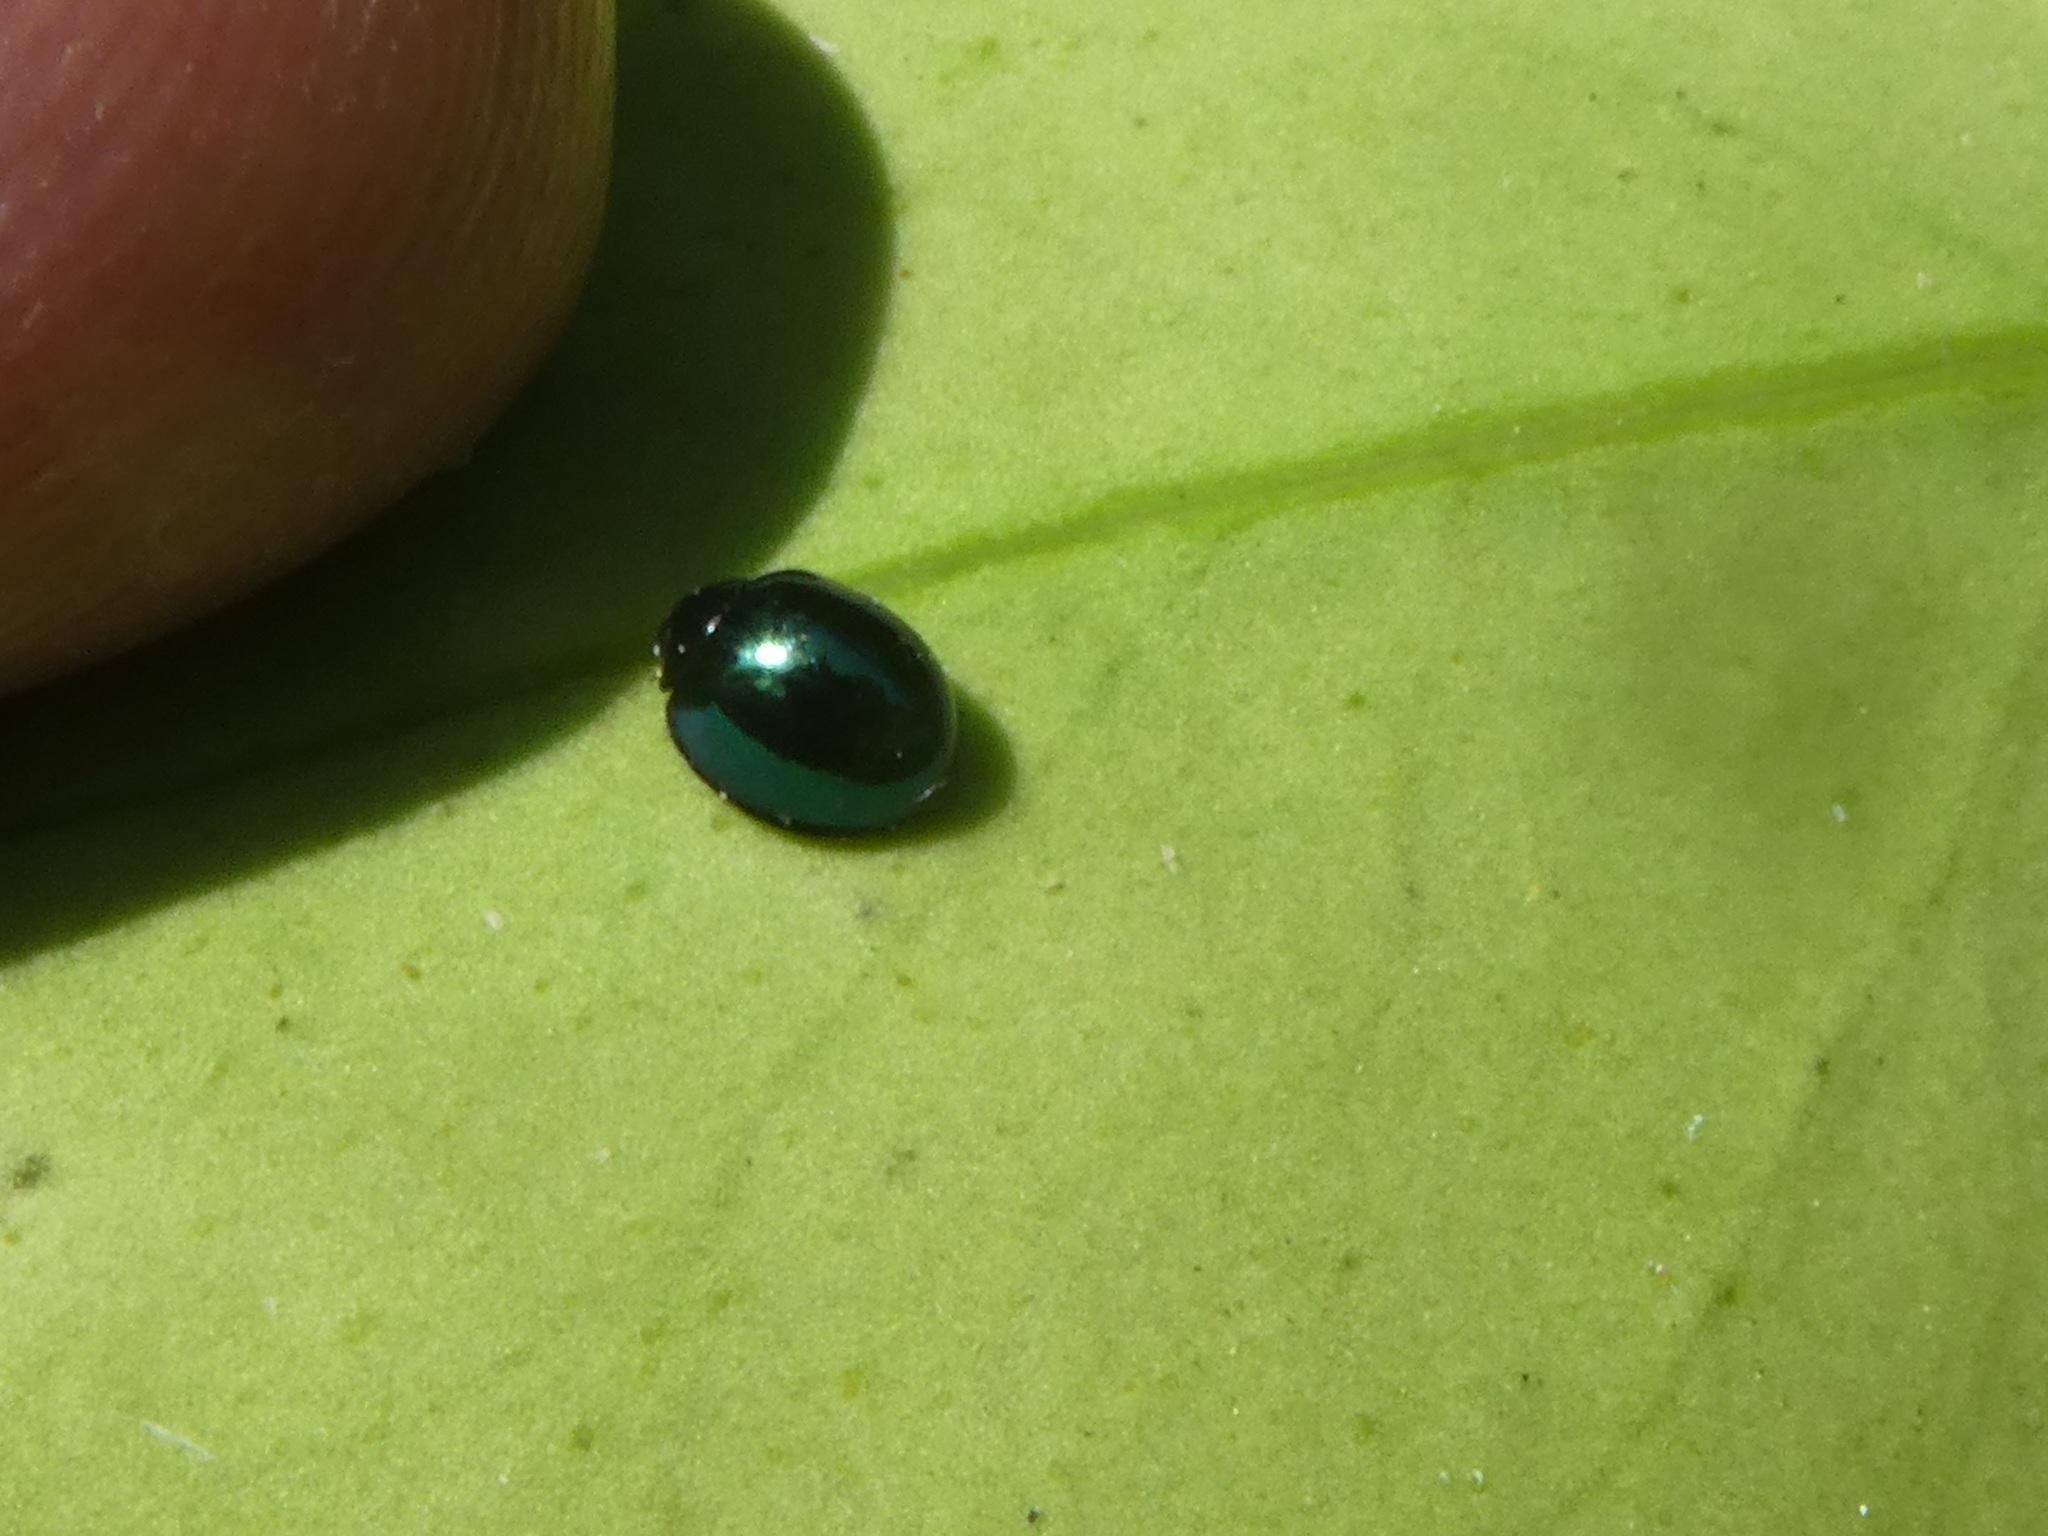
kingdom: Animalia
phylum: Arthropoda
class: Insecta
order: Coleoptera
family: Coccinellidae
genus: Halmus
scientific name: Halmus chalybeus
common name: Steel blue ladybird beetle
